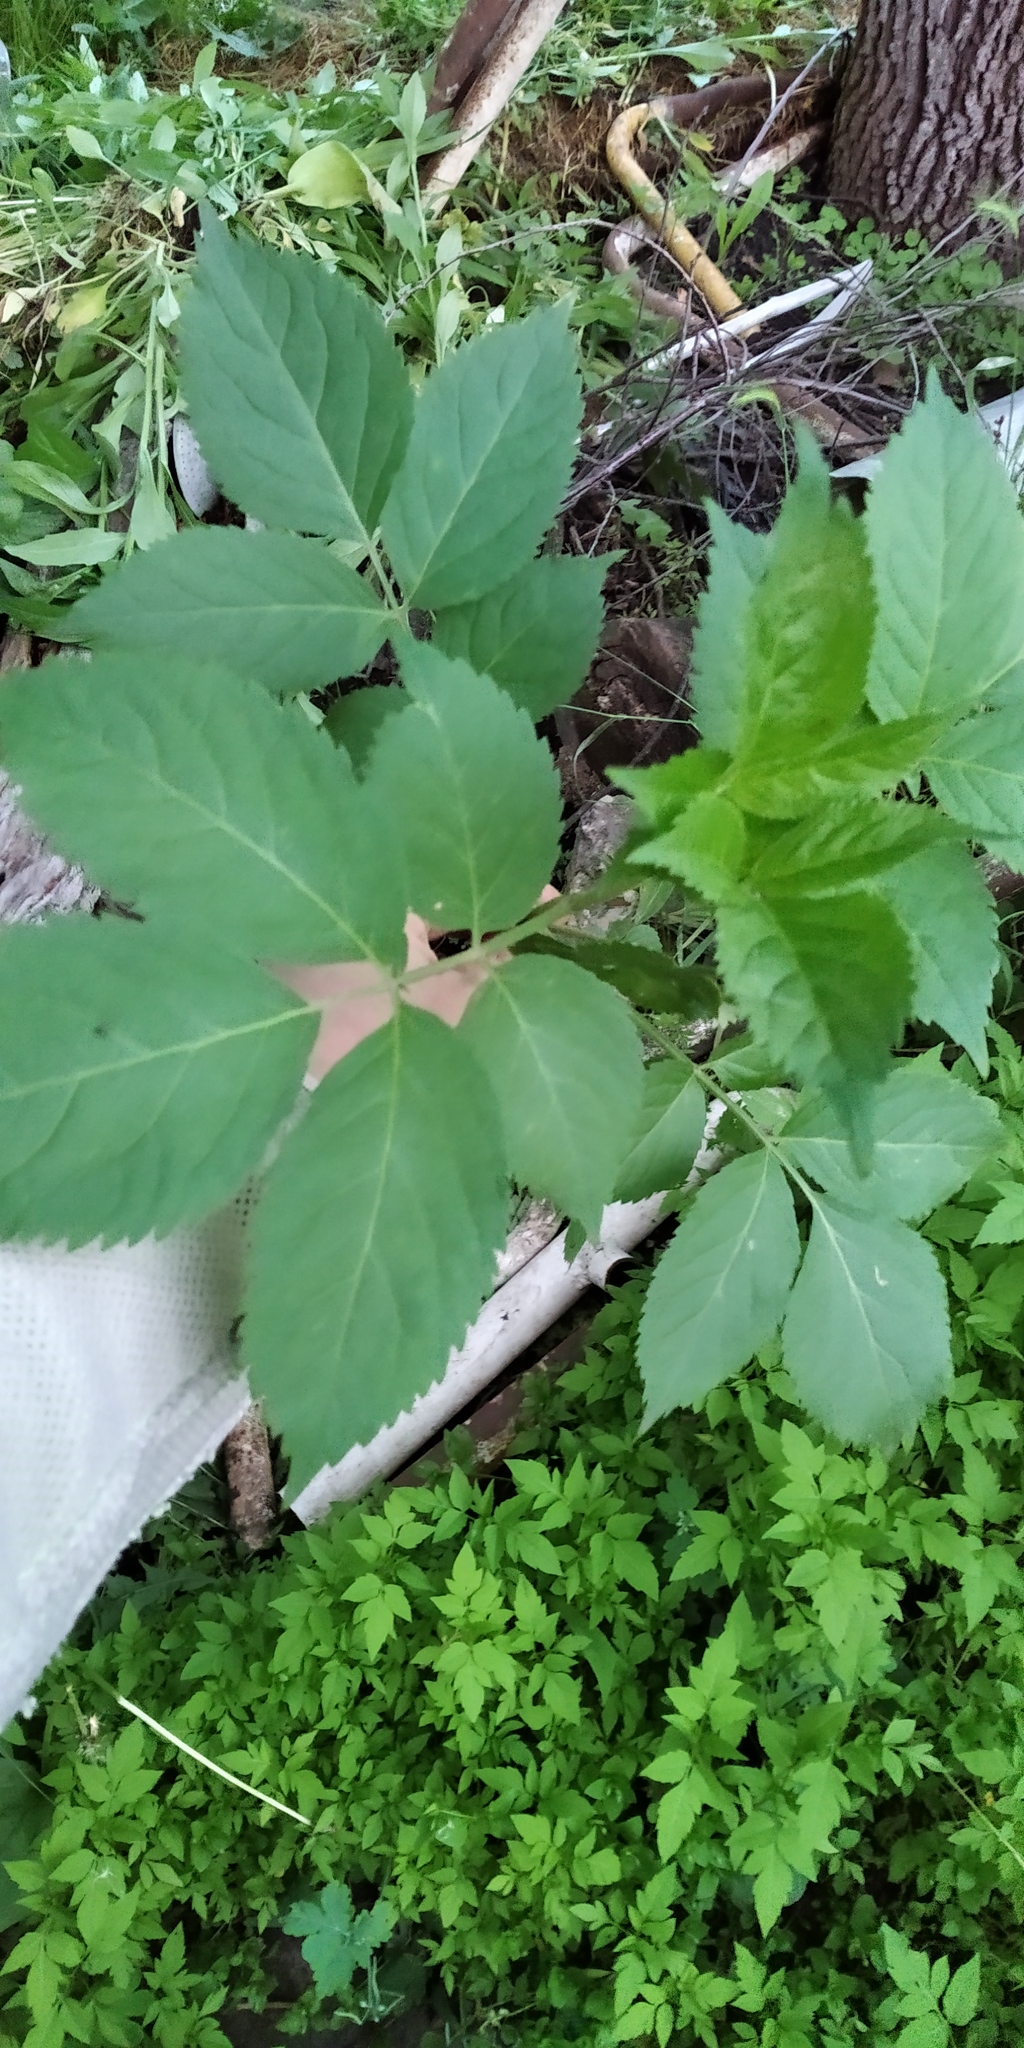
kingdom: Plantae
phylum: Tracheophyta
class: Magnoliopsida
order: Dipsacales
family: Viburnaceae
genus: Sambucus
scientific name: Sambucus nigra
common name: Elder
